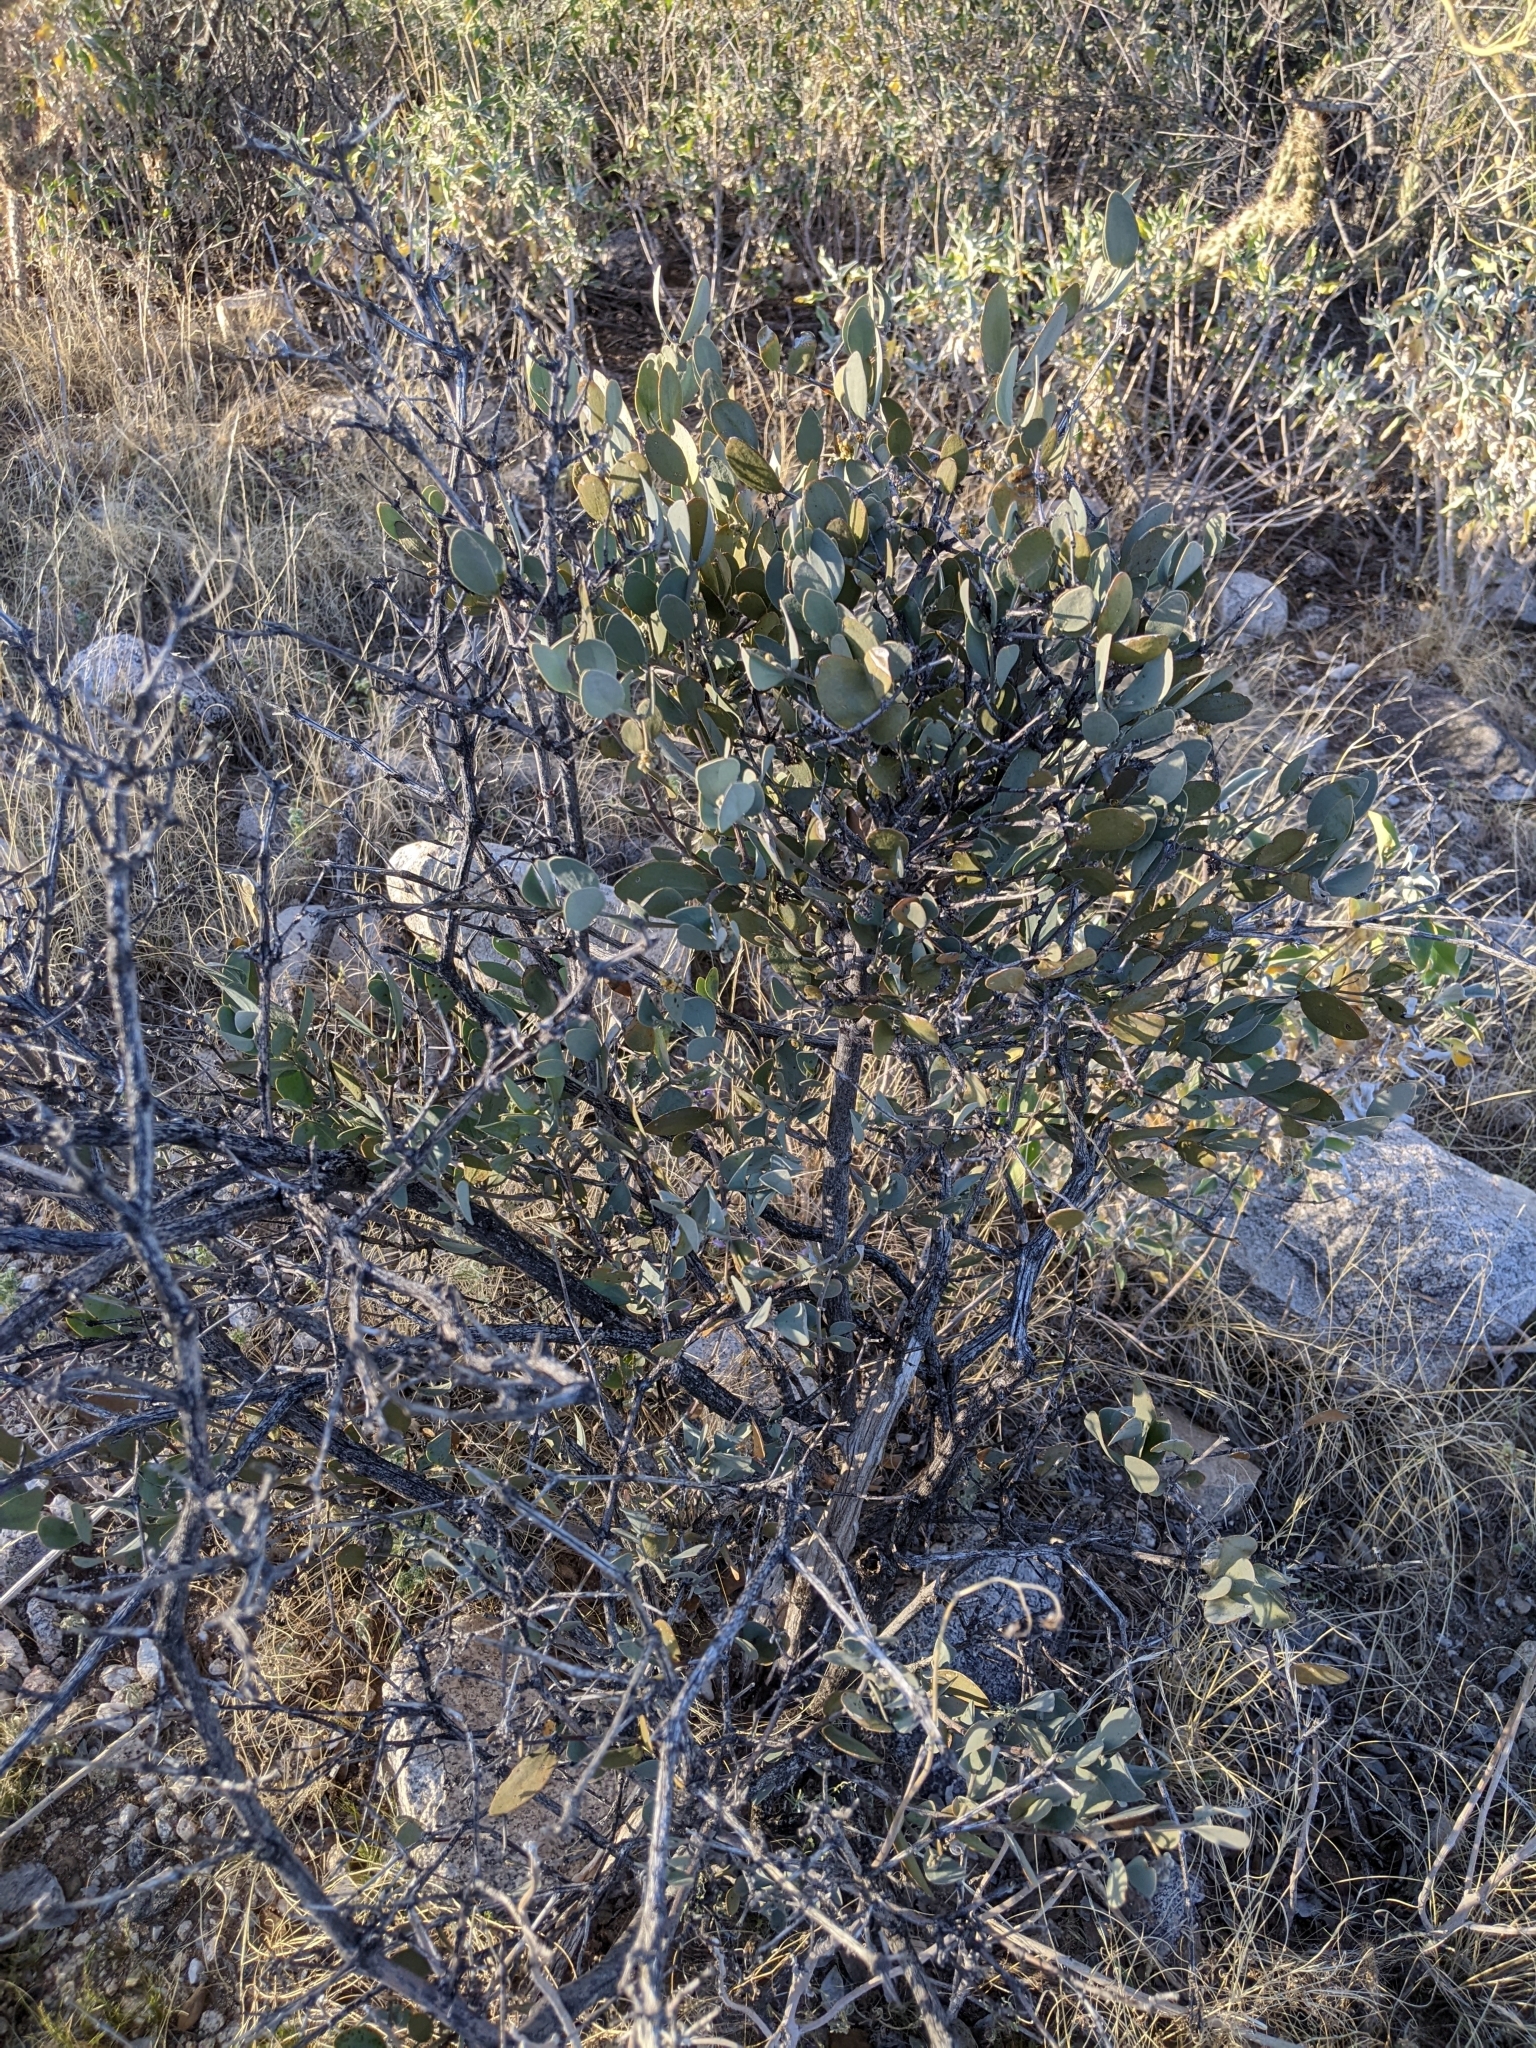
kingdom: Plantae
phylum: Tracheophyta
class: Magnoliopsida
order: Caryophyllales
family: Simmondsiaceae
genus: Simmondsia
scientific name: Simmondsia chinensis
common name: Jojoba
